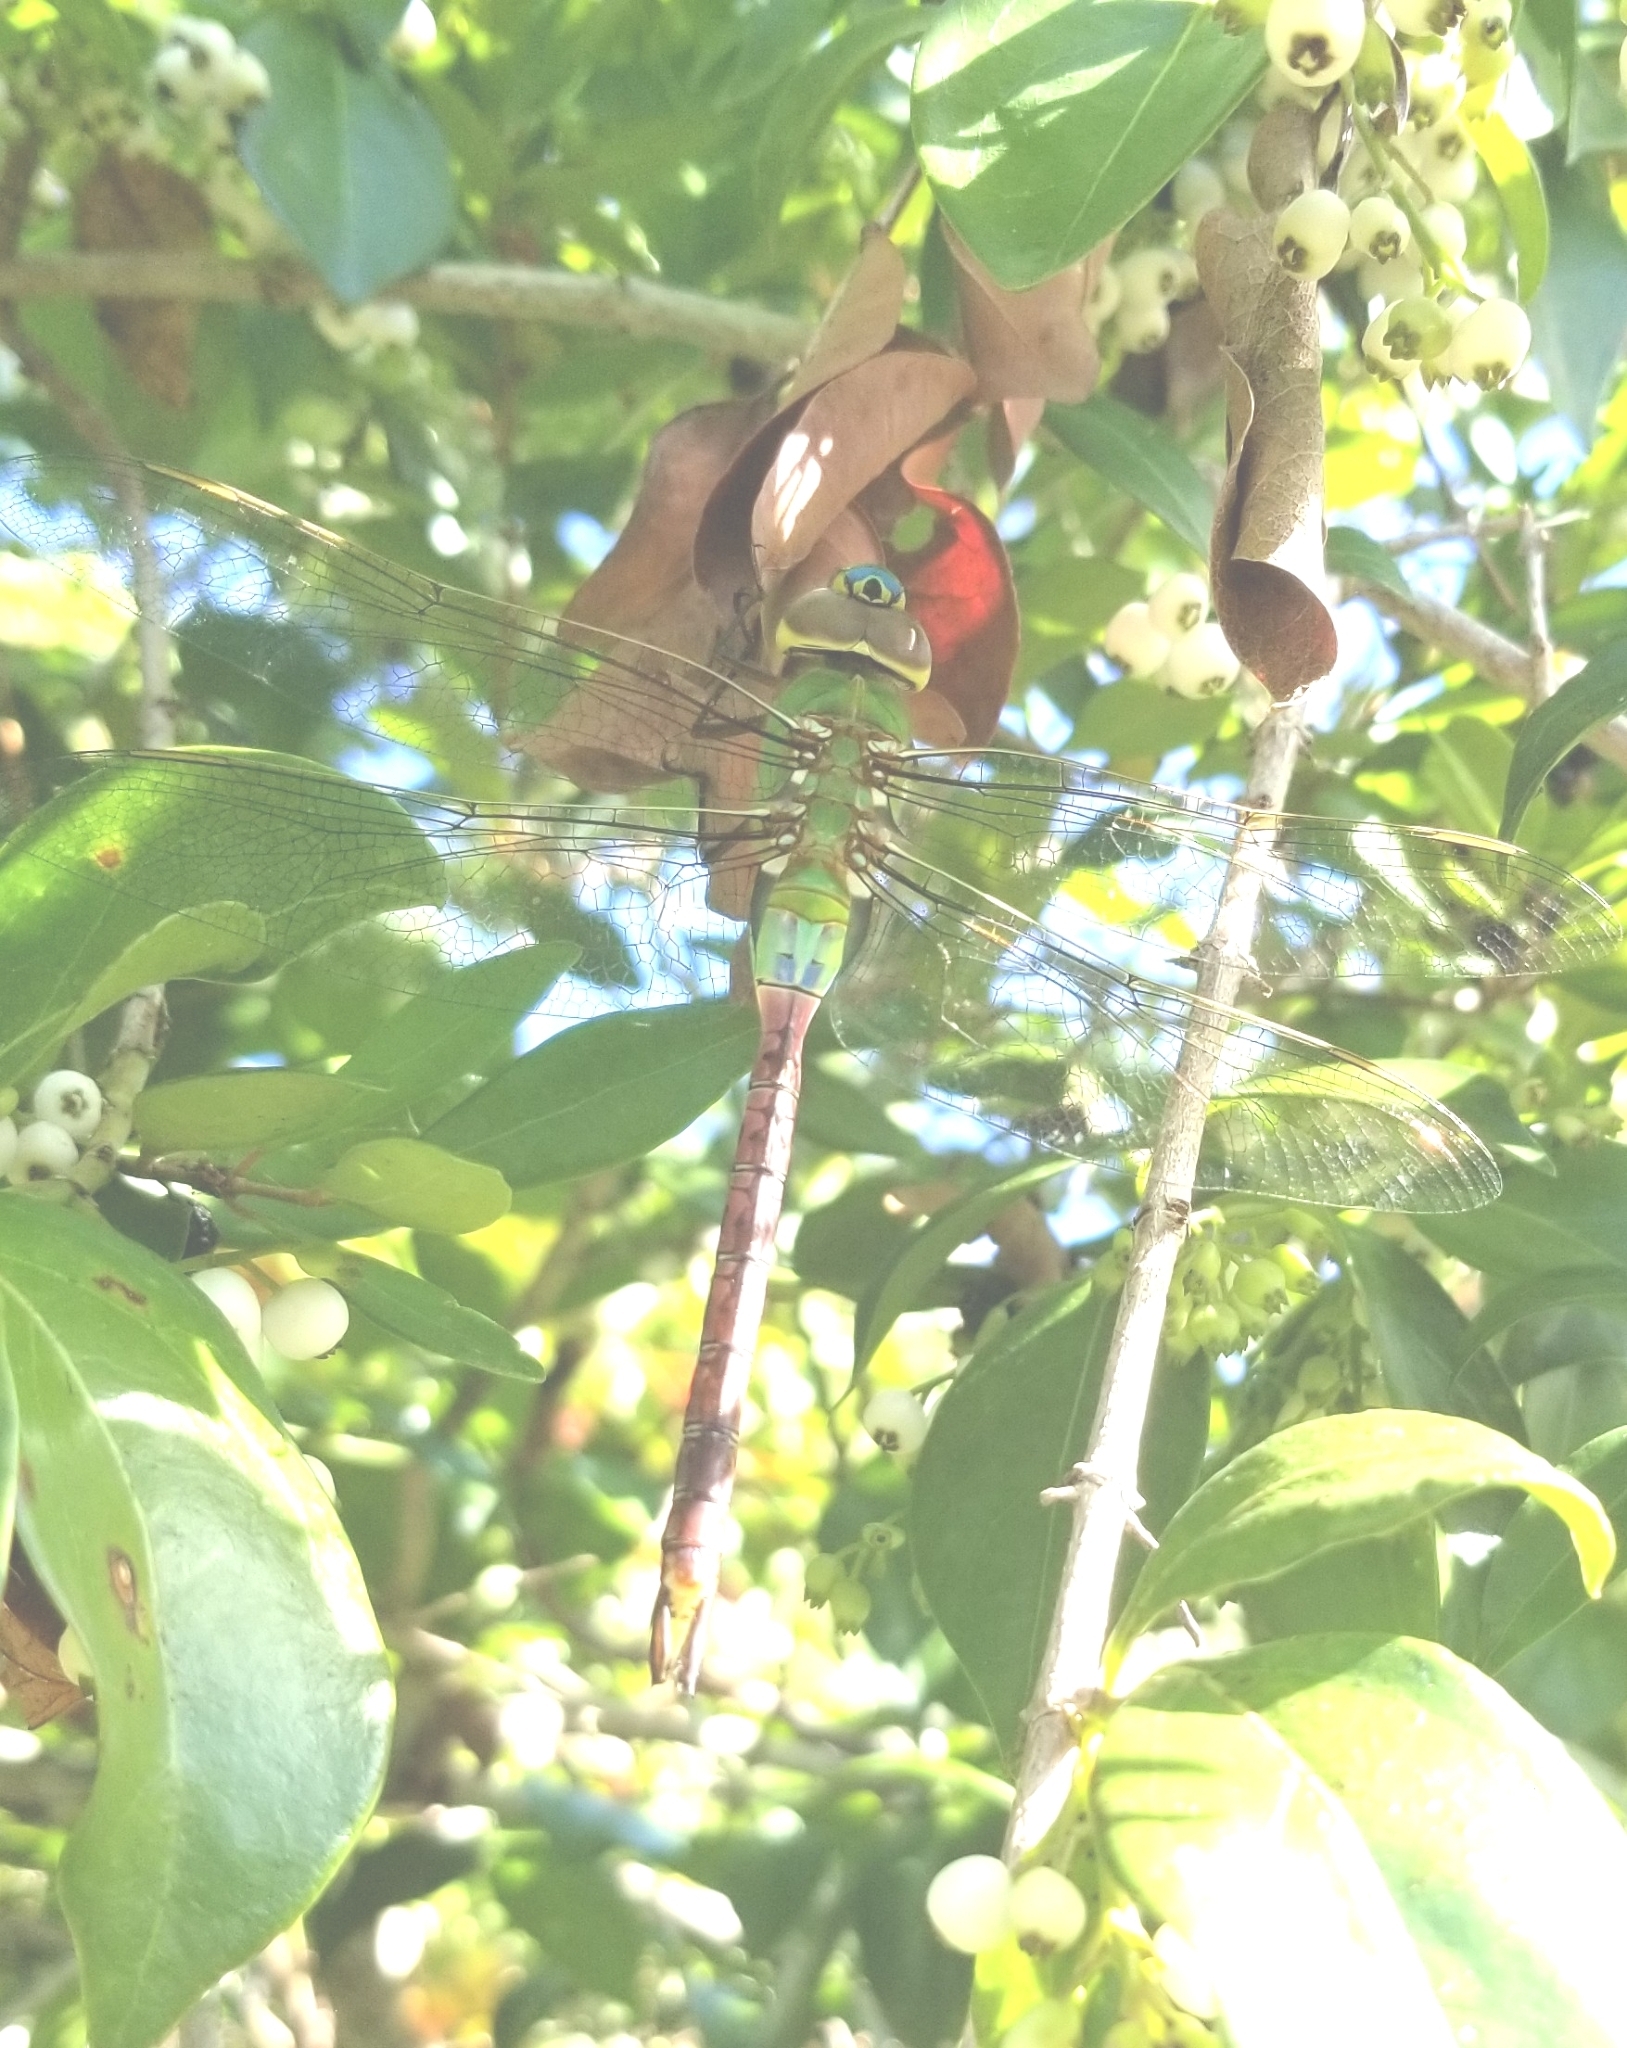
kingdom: Animalia
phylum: Arthropoda
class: Insecta
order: Odonata
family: Aeshnidae
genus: Anax
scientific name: Anax junius
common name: Common green darner
